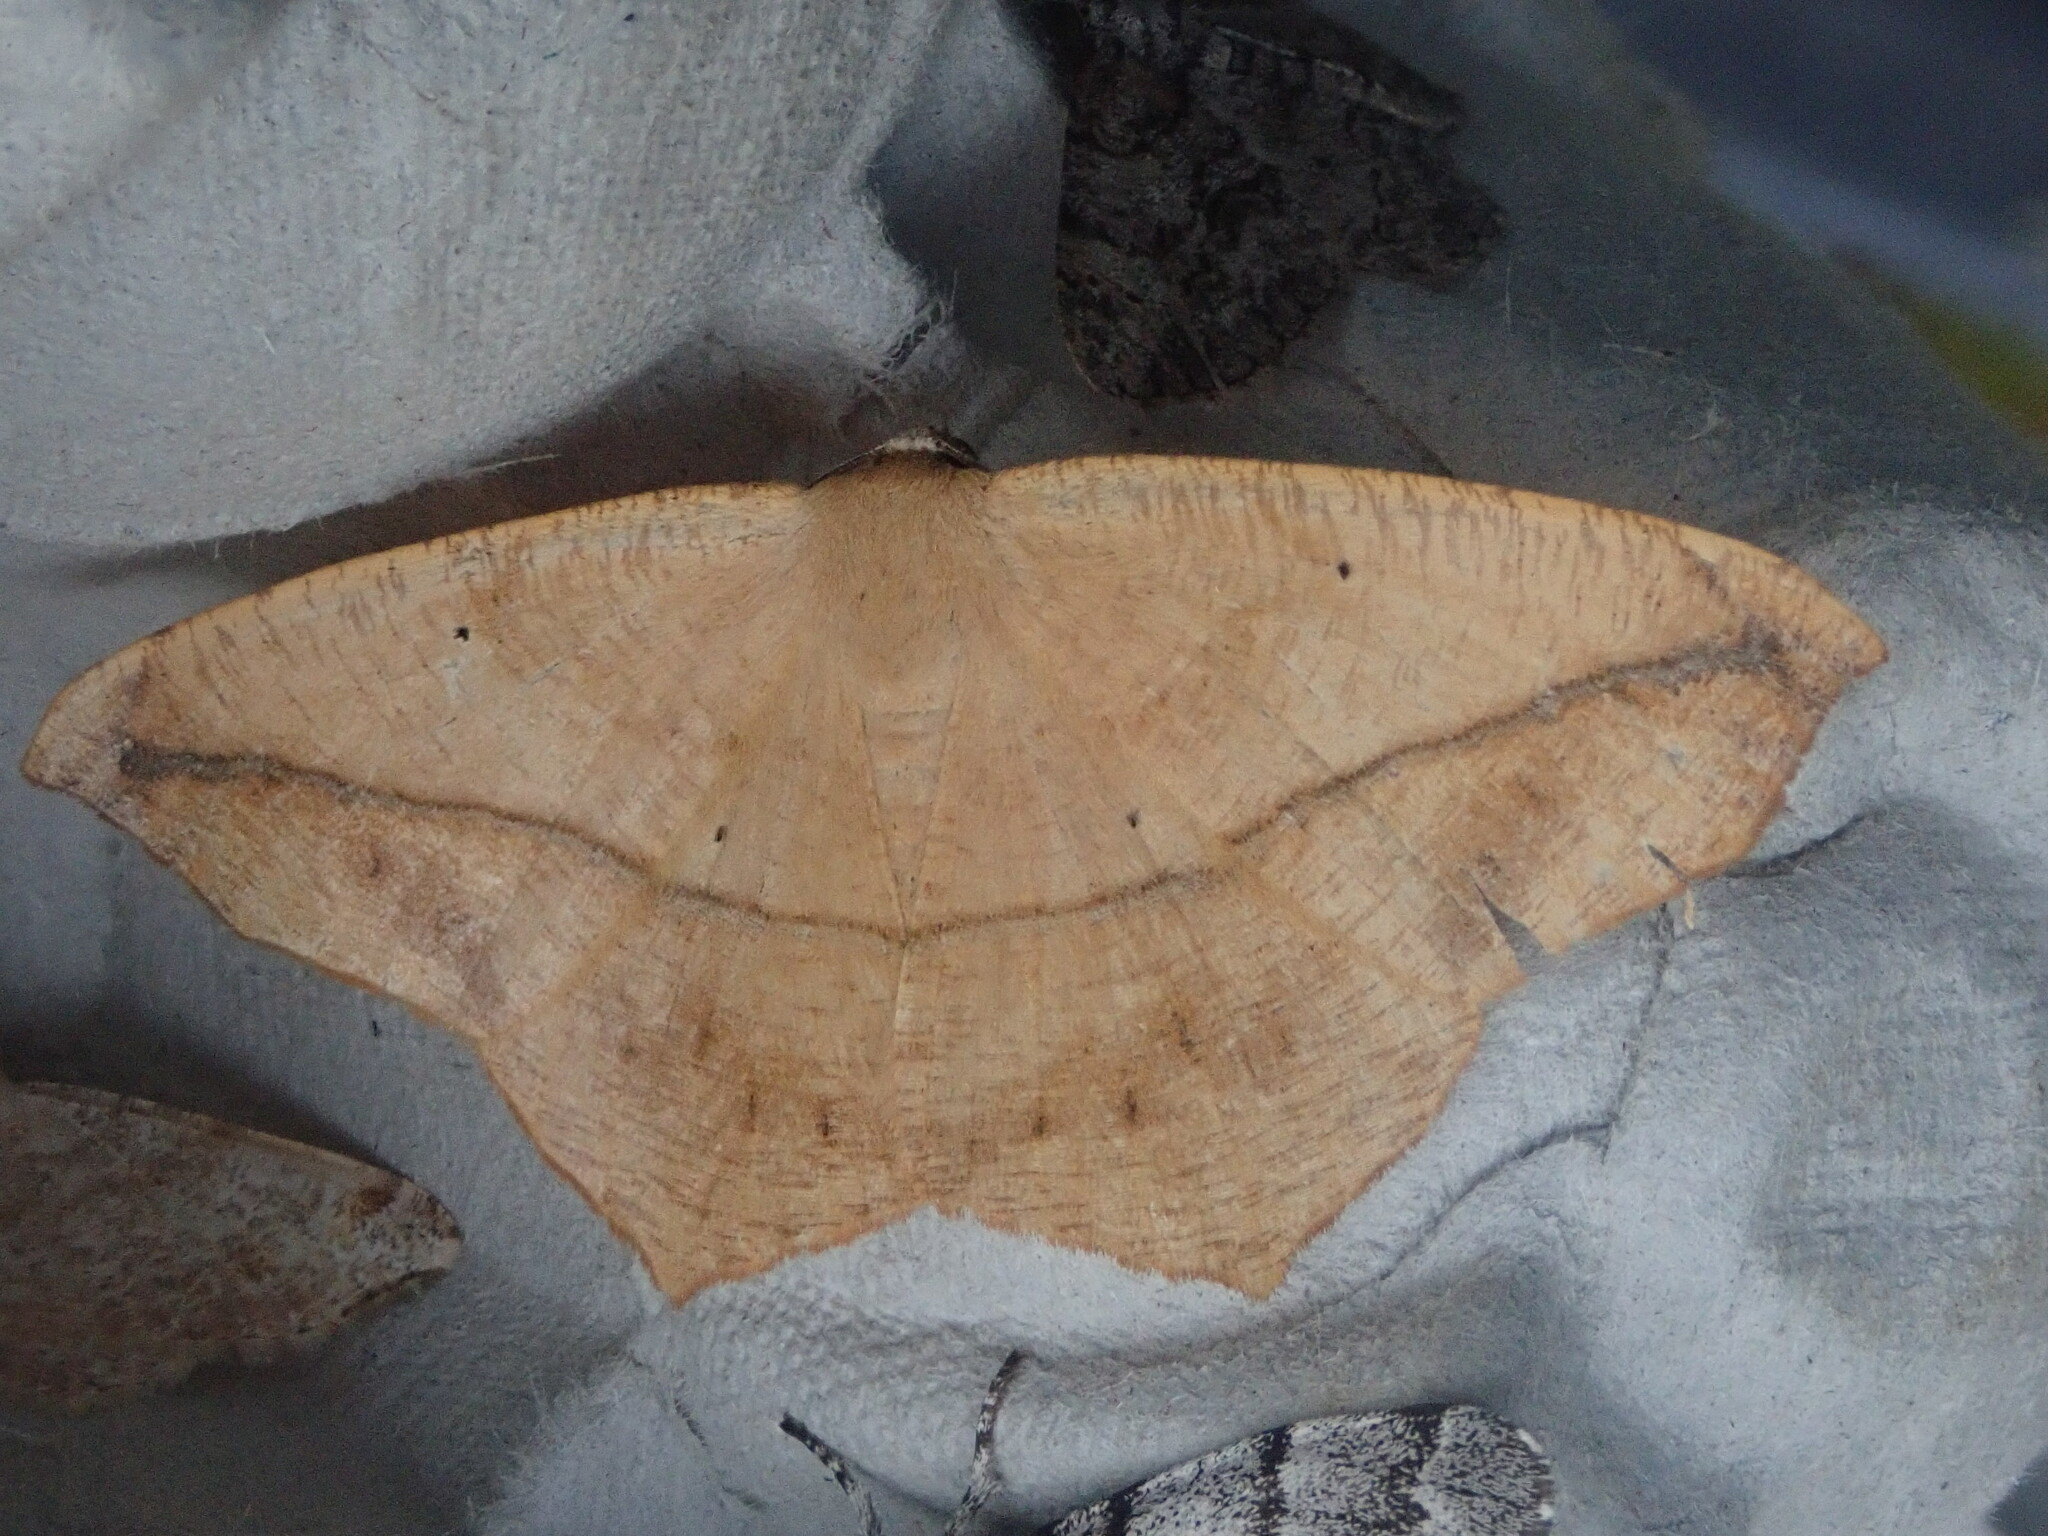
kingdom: Animalia
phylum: Arthropoda
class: Insecta
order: Lepidoptera
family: Geometridae
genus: Prochoerodes
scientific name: Prochoerodes lineola
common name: Large maple spanworm
